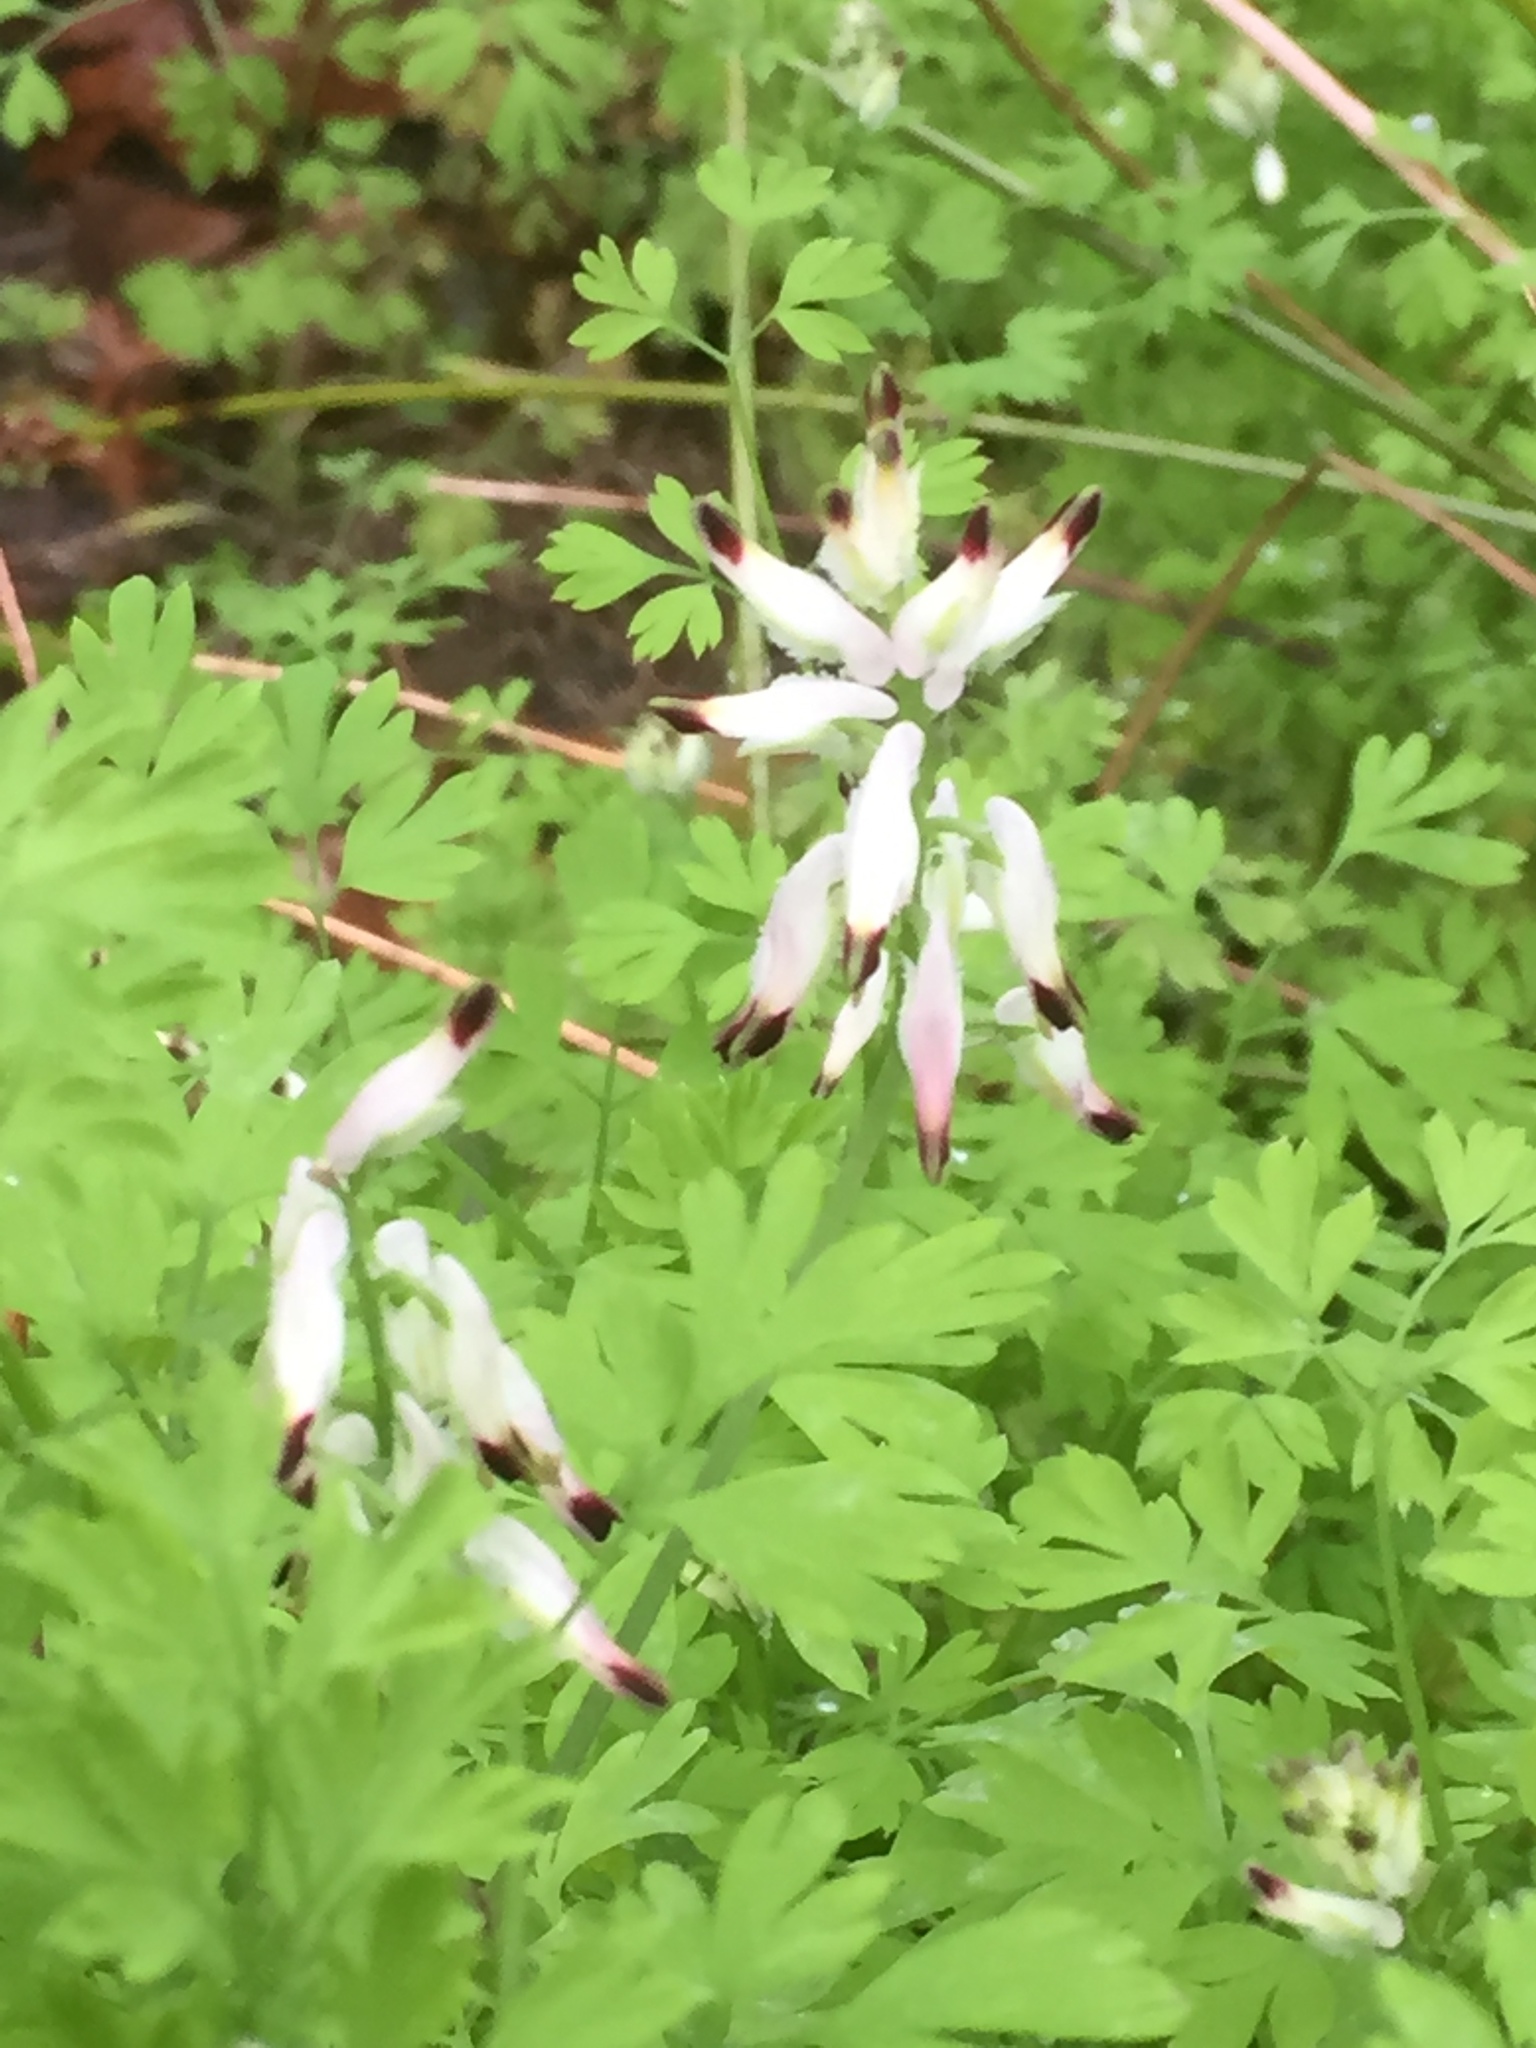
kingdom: Plantae
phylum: Tracheophyta
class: Magnoliopsida
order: Ranunculales
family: Papaveraceae
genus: Fumaria
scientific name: Fumaria capreolata
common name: White ramping-fumitory
